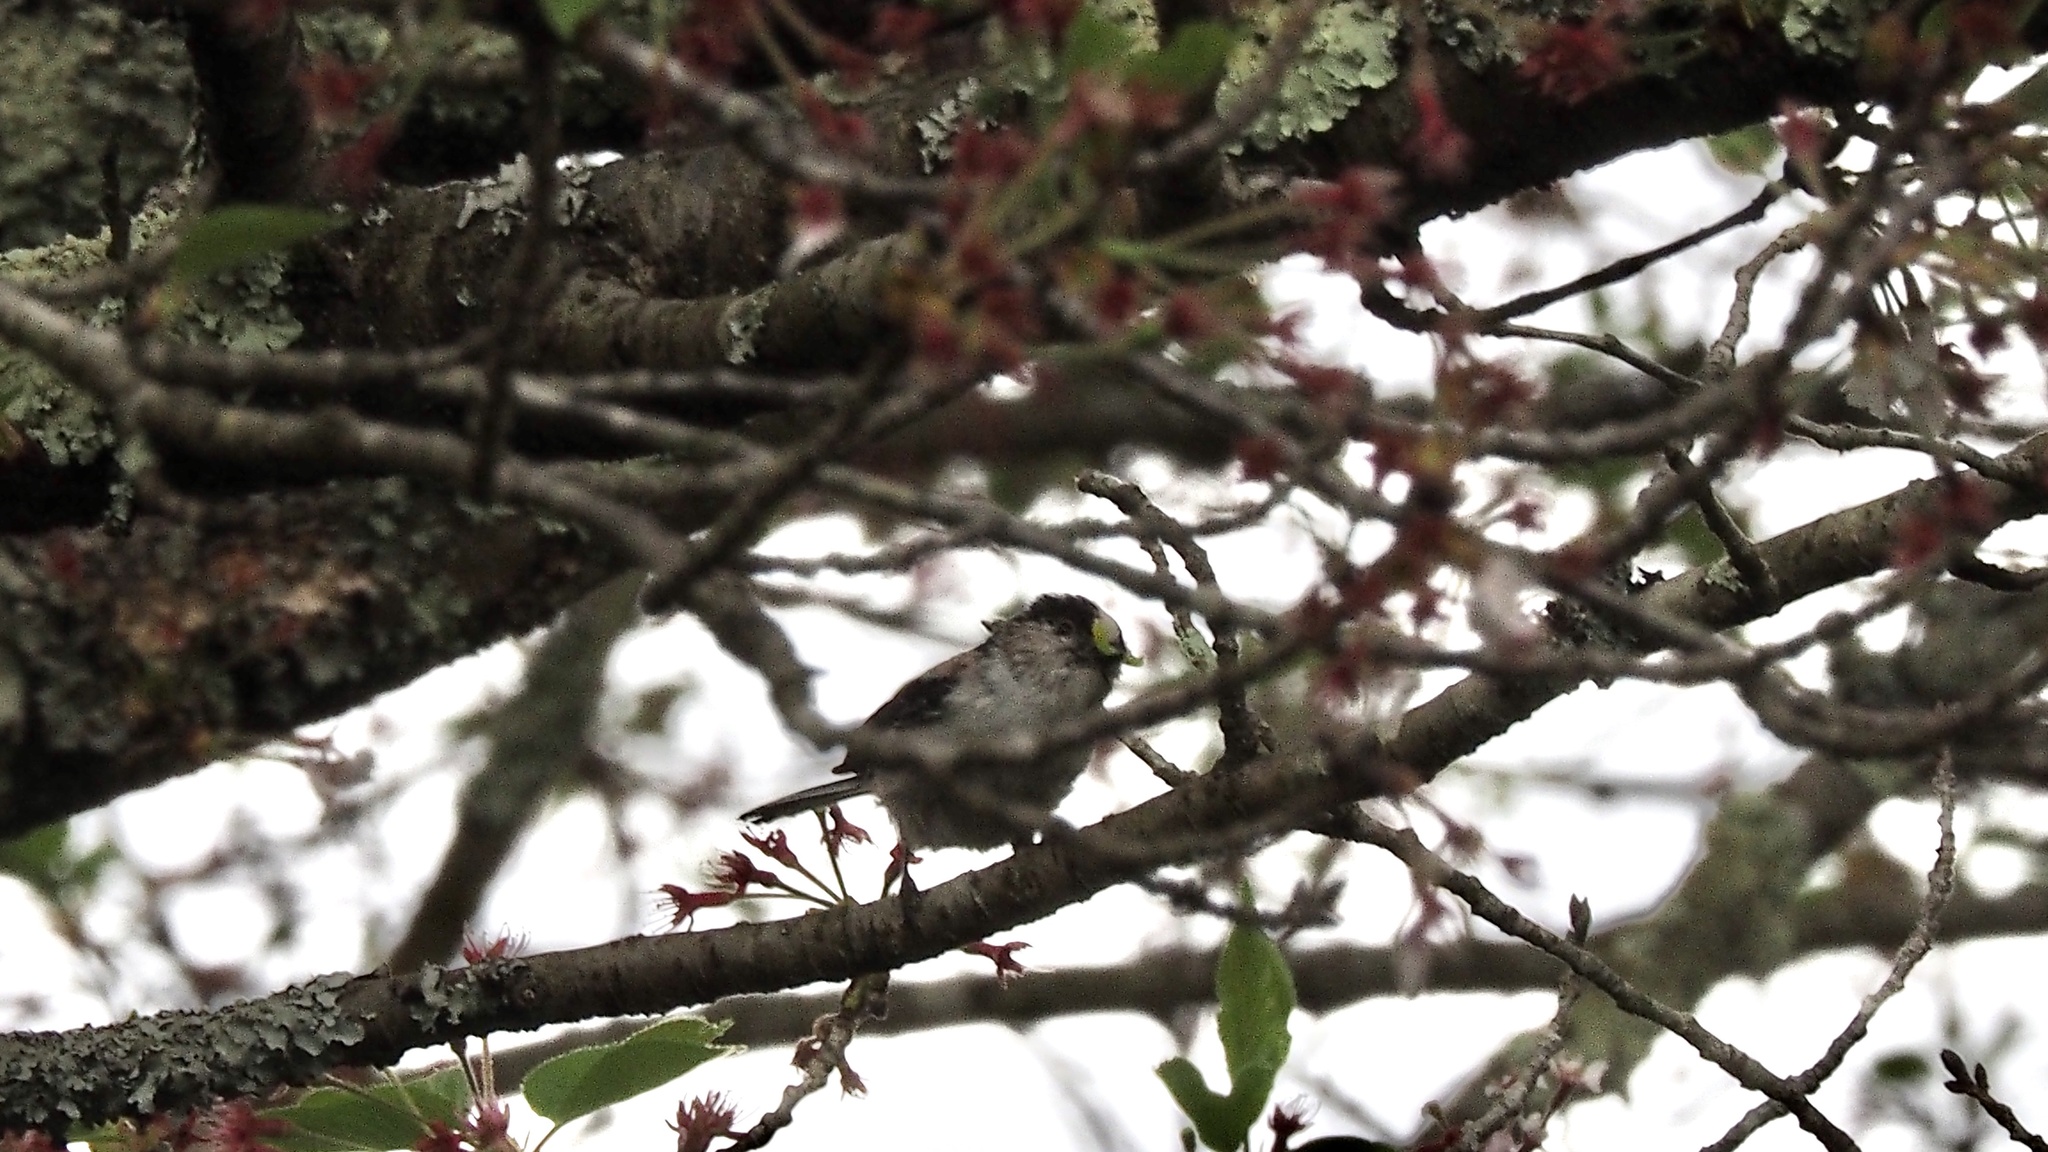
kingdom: Animalia
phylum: Chordata
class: Aves
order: Passeriformes
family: Aegithalidae
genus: Aegithalos
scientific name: Aegithalos caudatus
